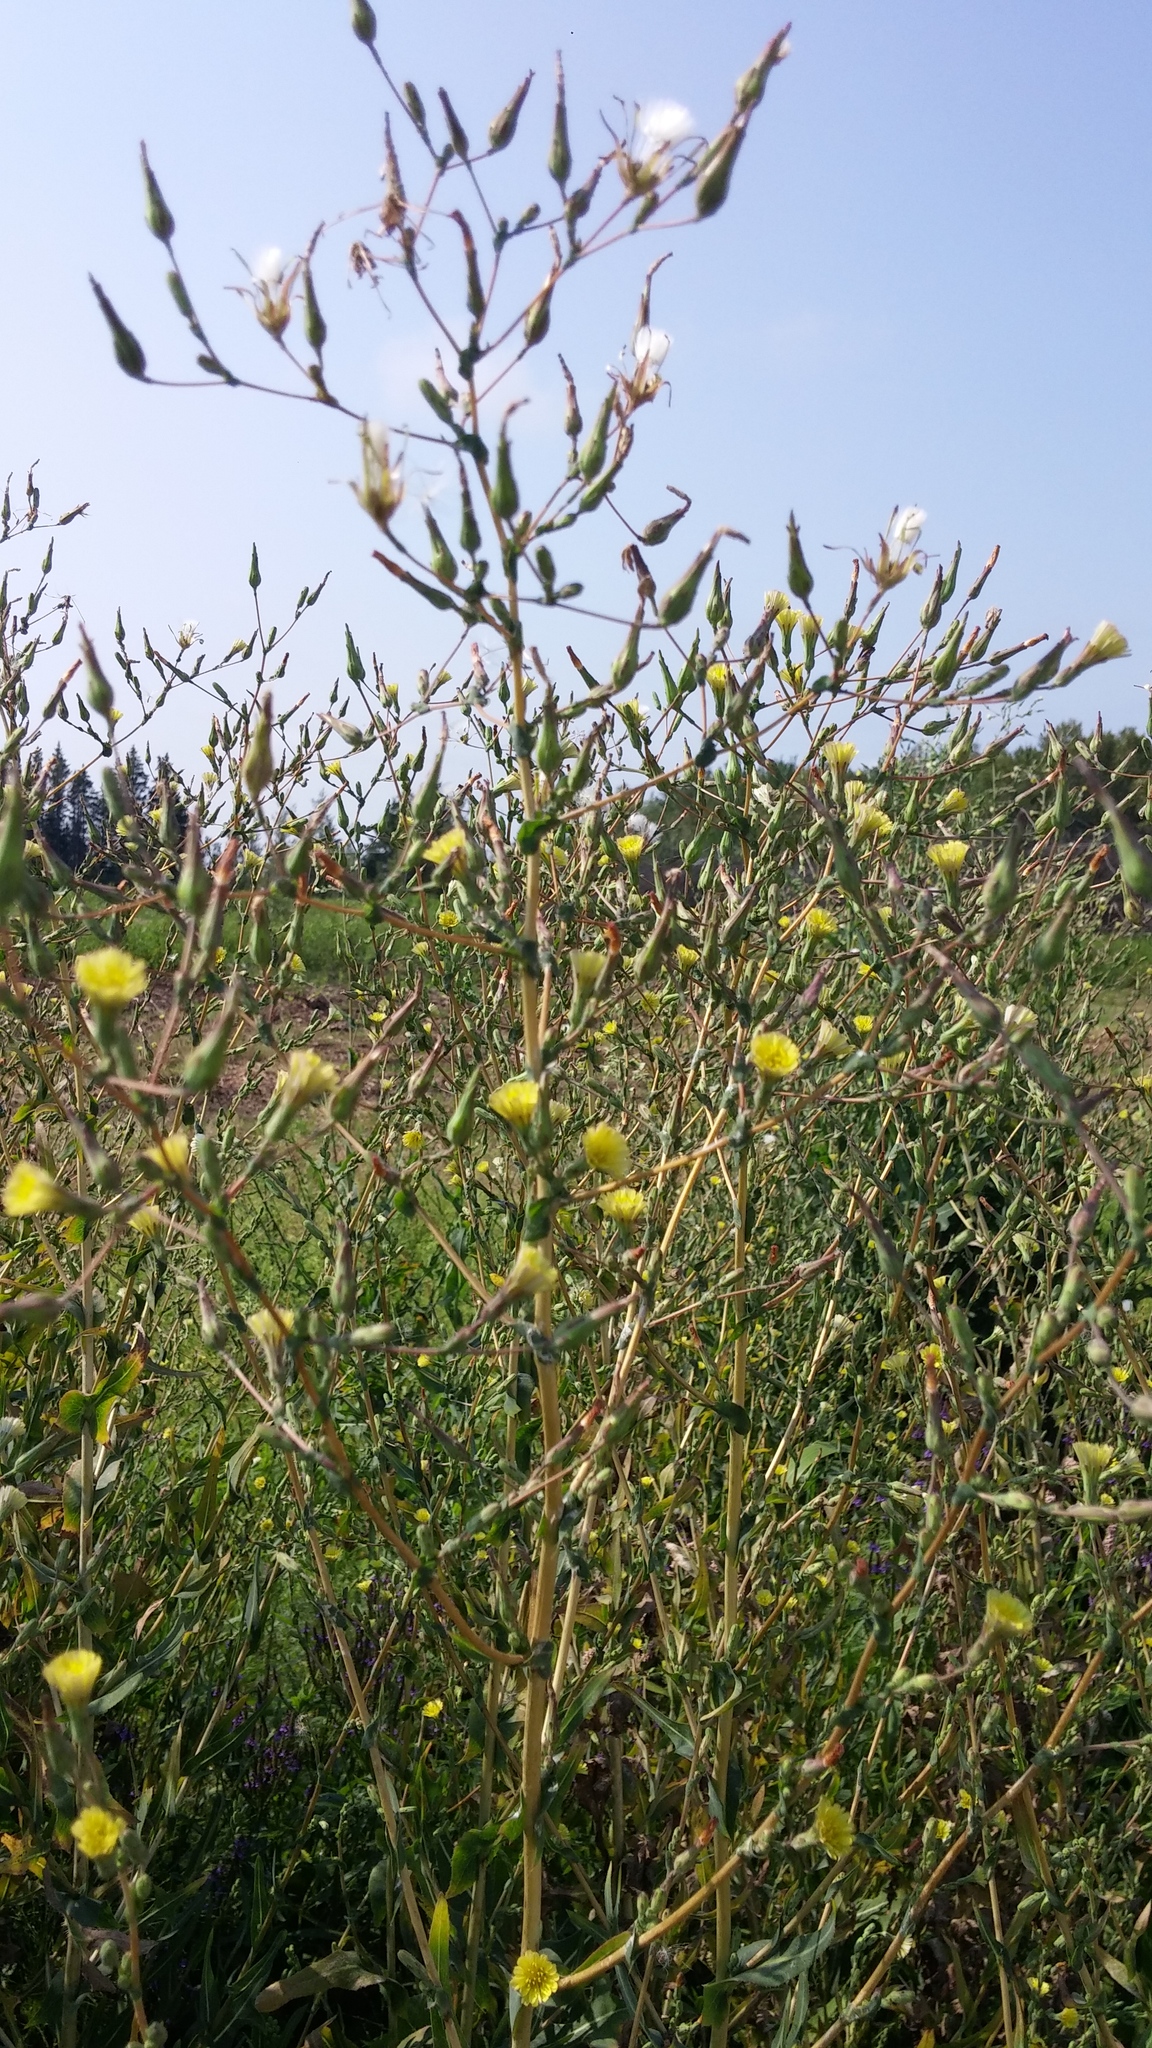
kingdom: Plantae
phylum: Tracheophyta
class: Magnoliopsida
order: Asterales
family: Asteraceae
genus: Lactuca
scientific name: Lactuca serriola
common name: Prickly lettuce
